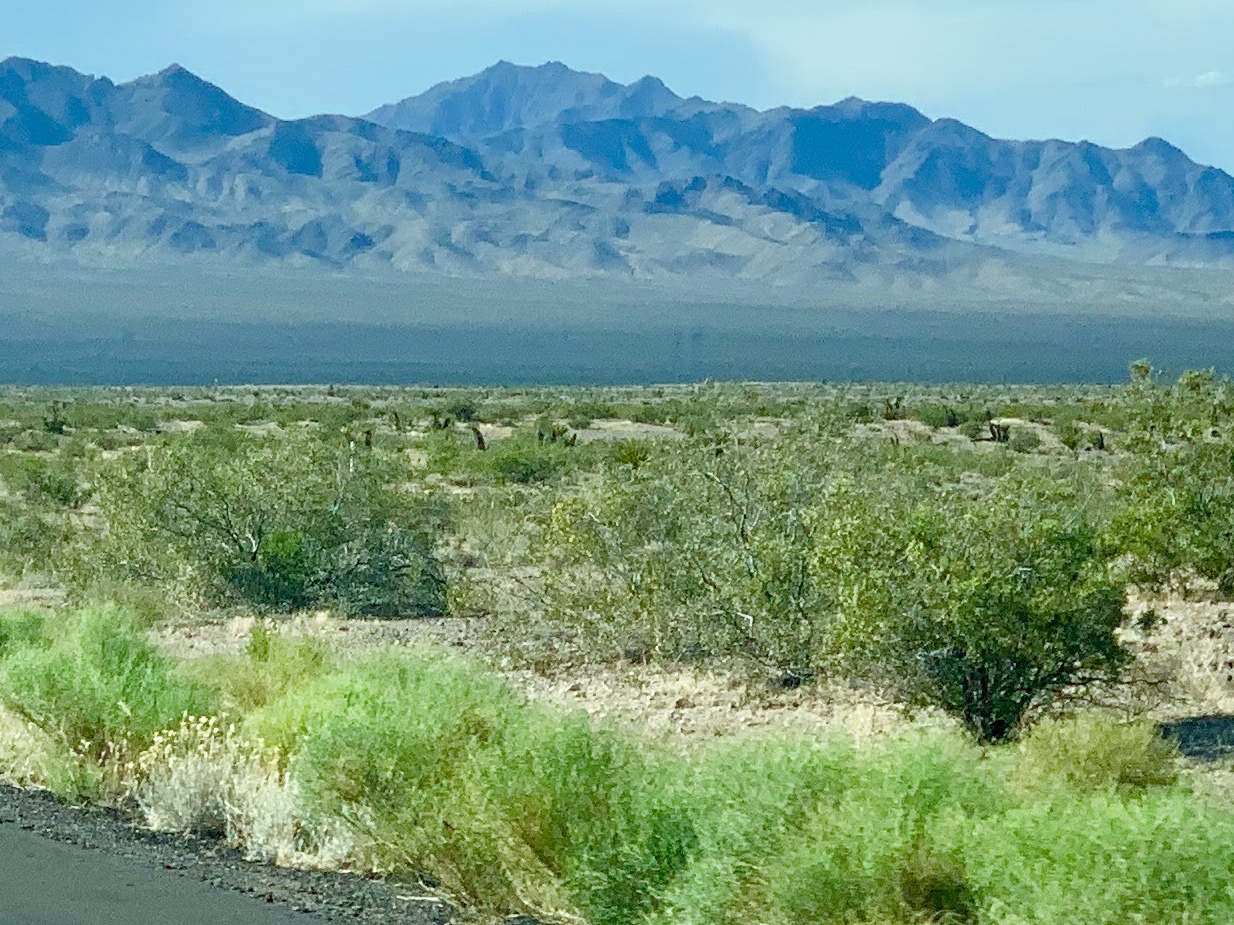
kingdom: Plantae
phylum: Tracheophyta
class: Magnoliopsida
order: Zygophyllales
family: Zygophyllaceae
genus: Larrea
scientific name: Larrea tridentata
